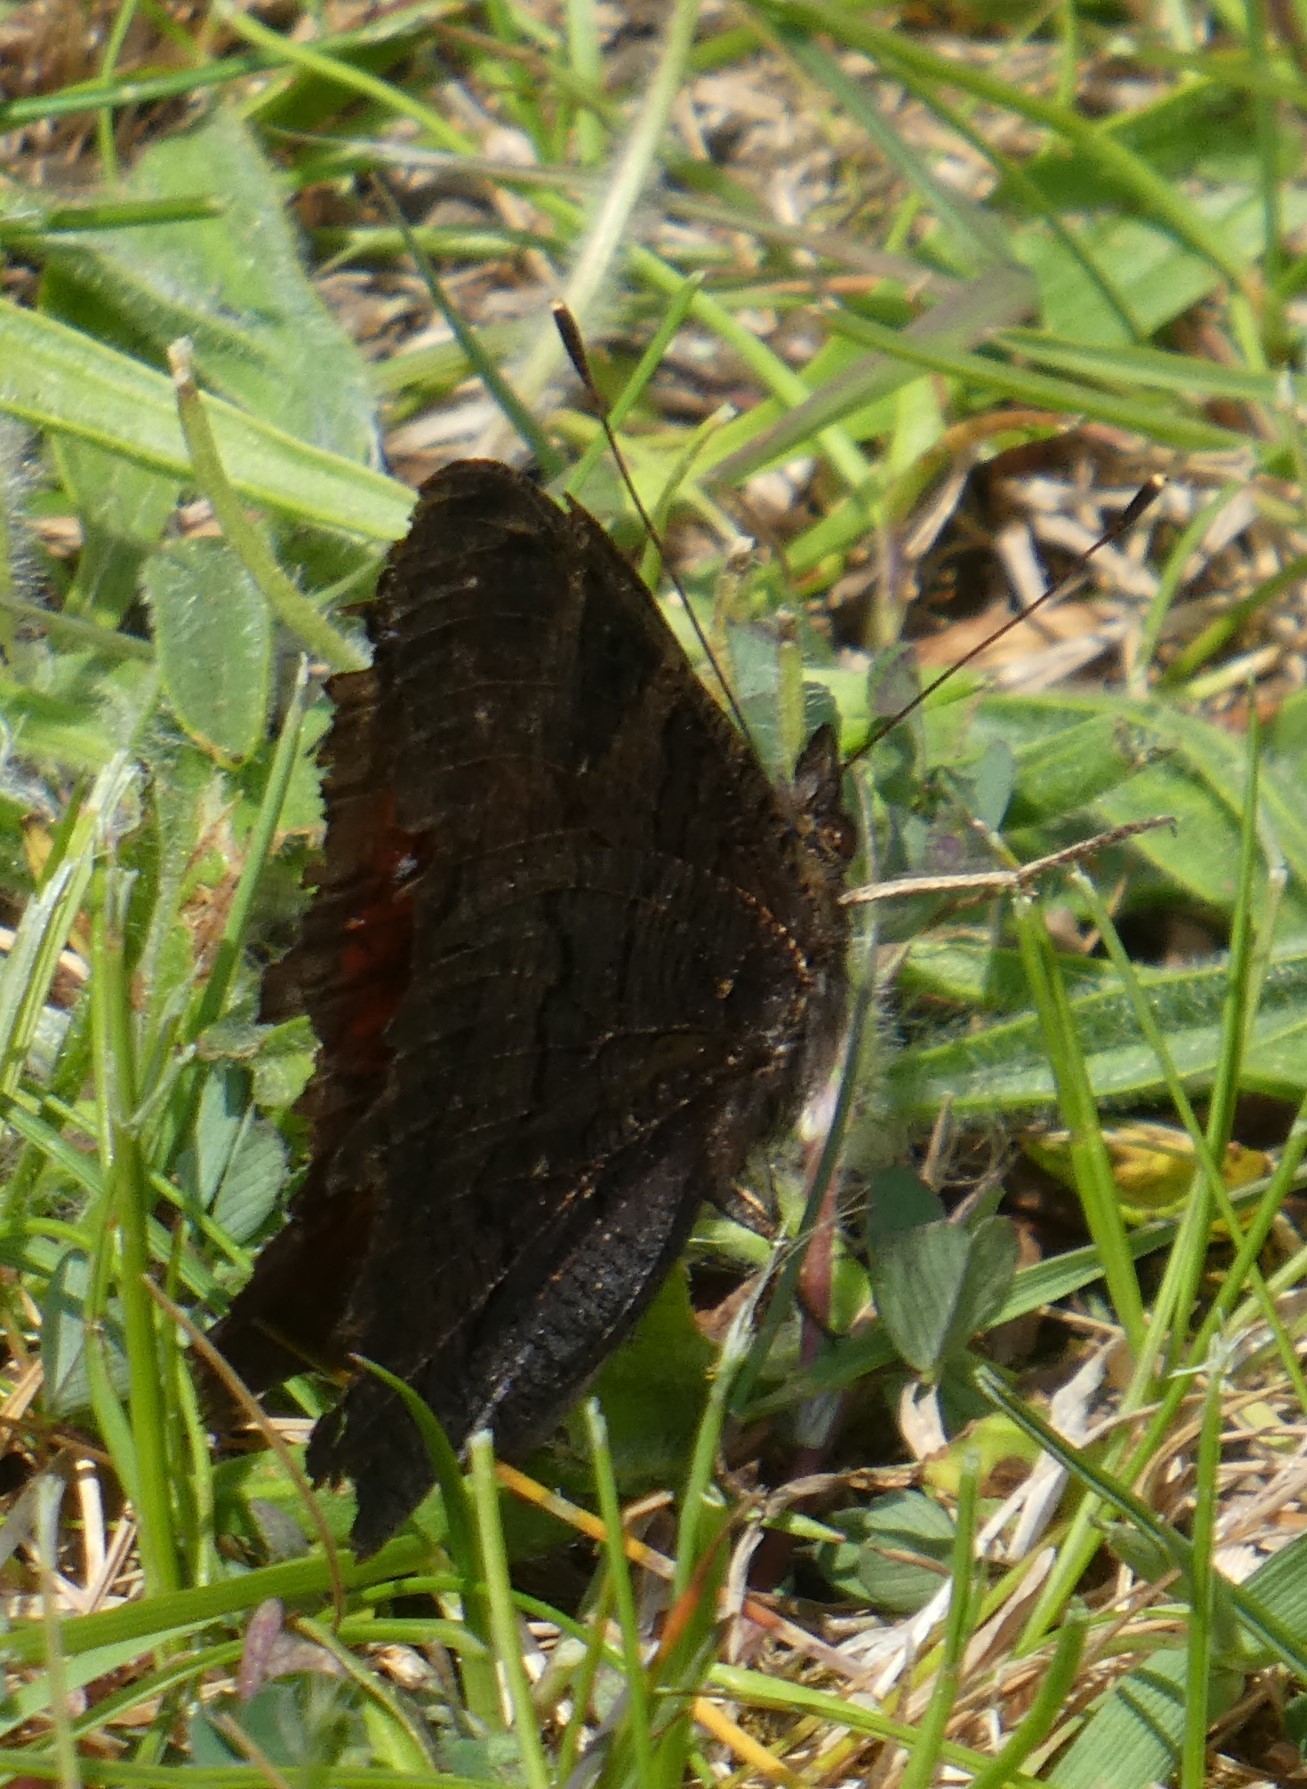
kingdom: Animalia
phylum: Arthropoda
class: Insecta
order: Lepidoptera
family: Nymphalidae
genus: Aglais
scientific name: Aglais io
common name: Peacock
